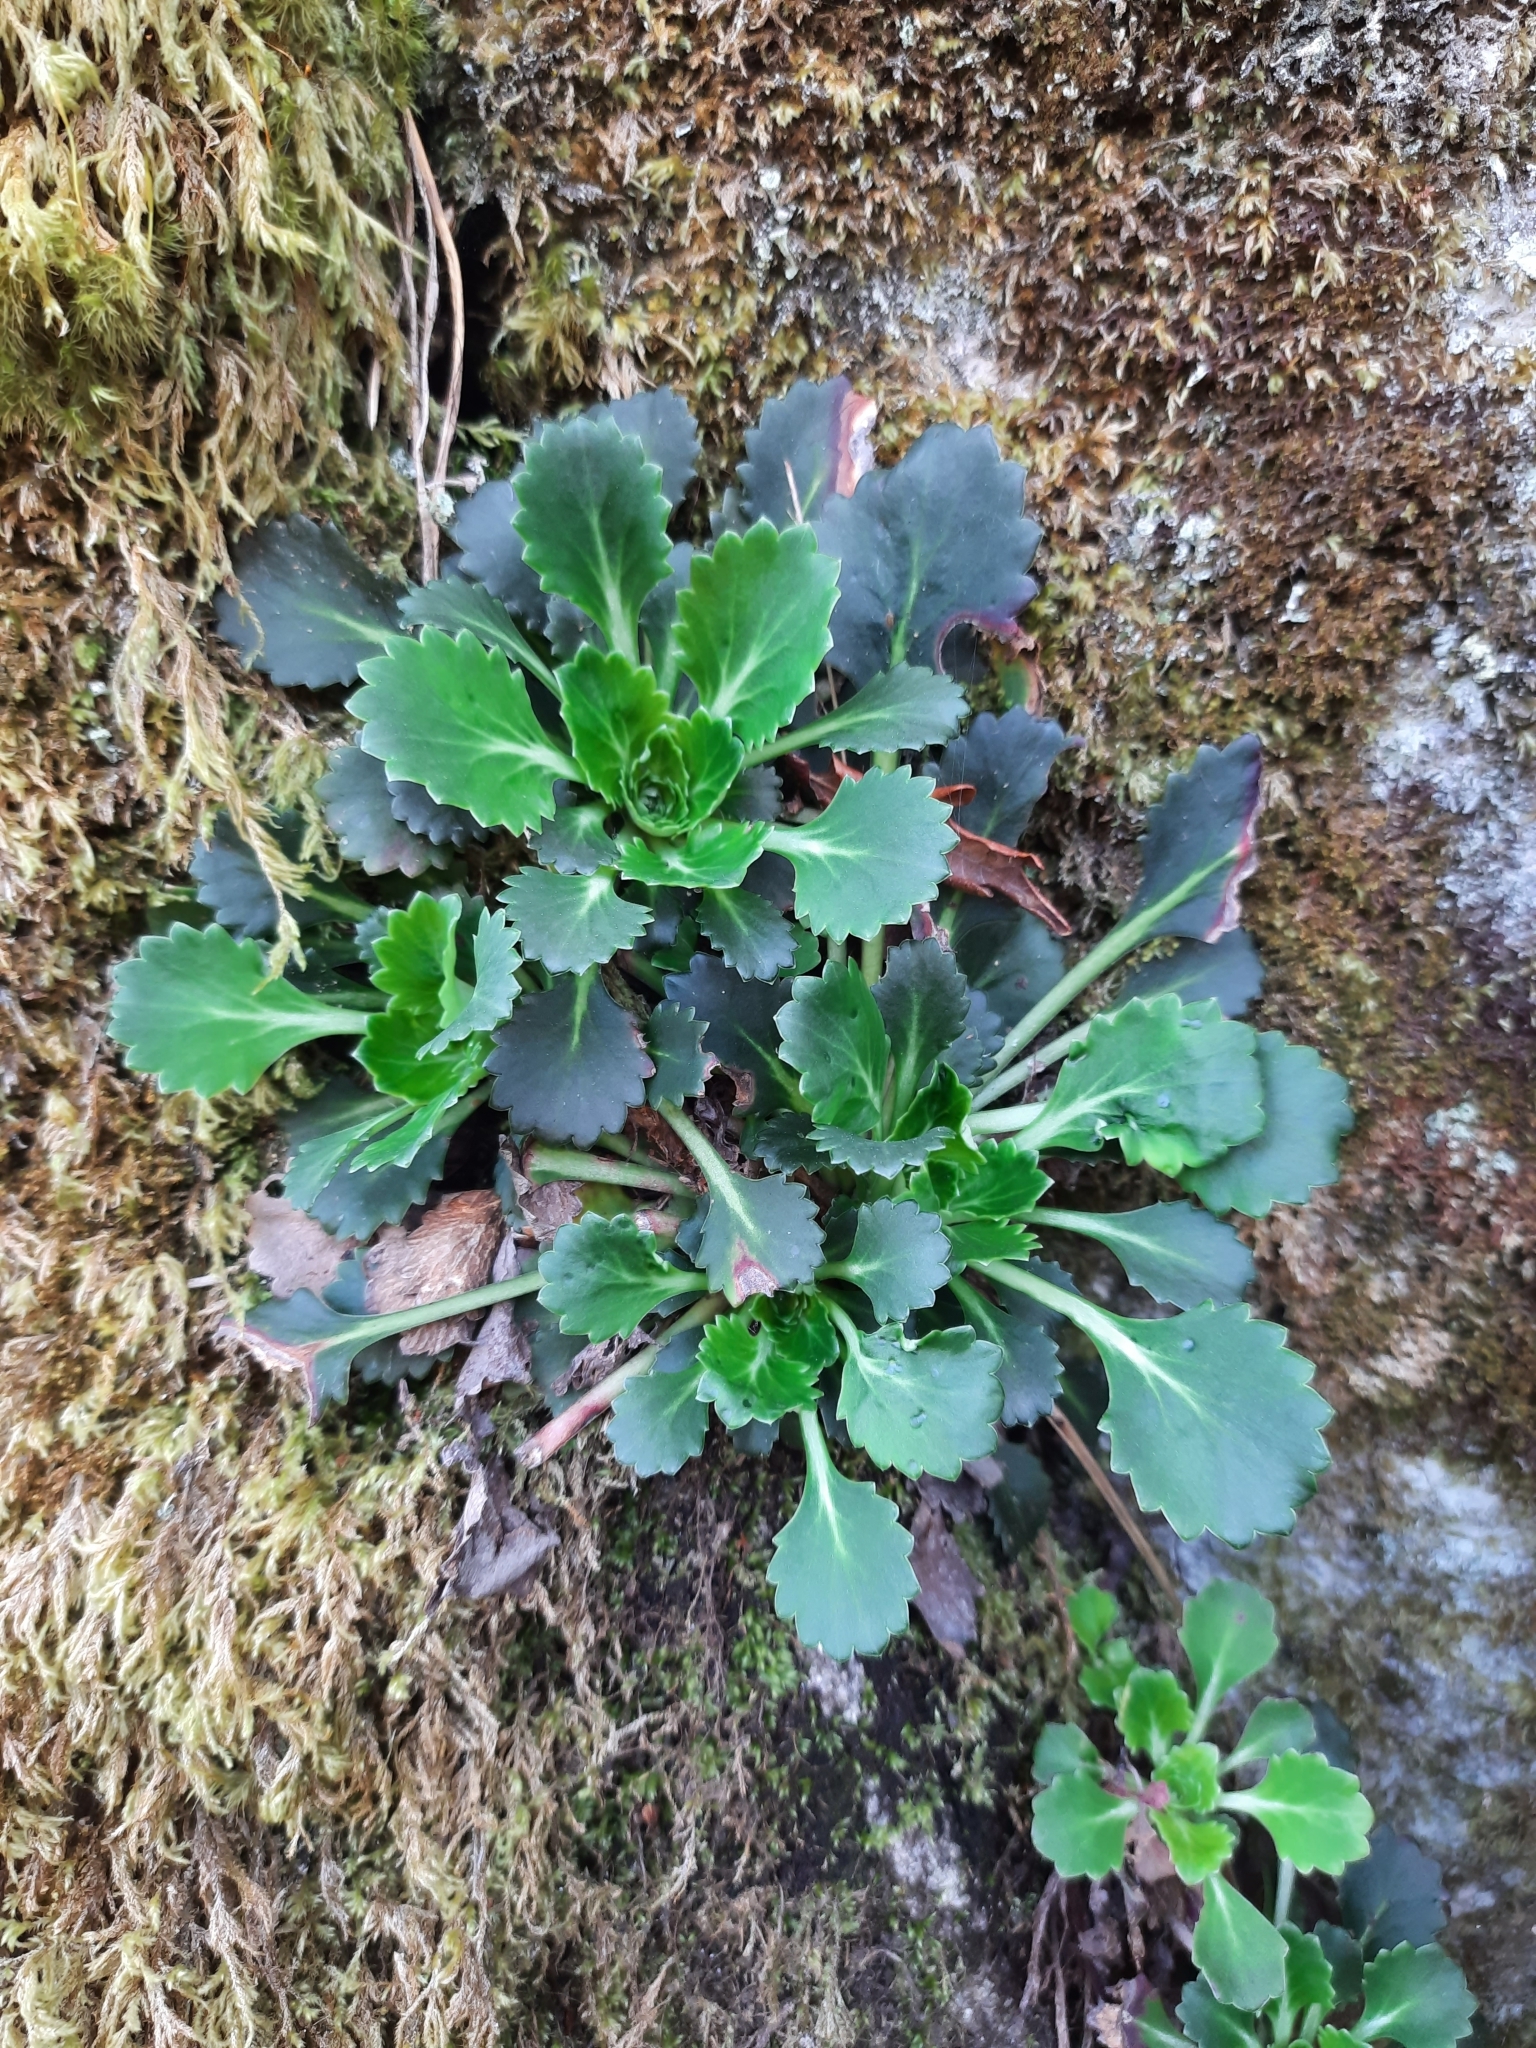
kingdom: Plantae
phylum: Tracheophyta
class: Magnoliopsida
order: Saxifragales
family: Saxifragaceae
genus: Saxifraga
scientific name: Saxifraga spathularis
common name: St patrick's-cabbage
